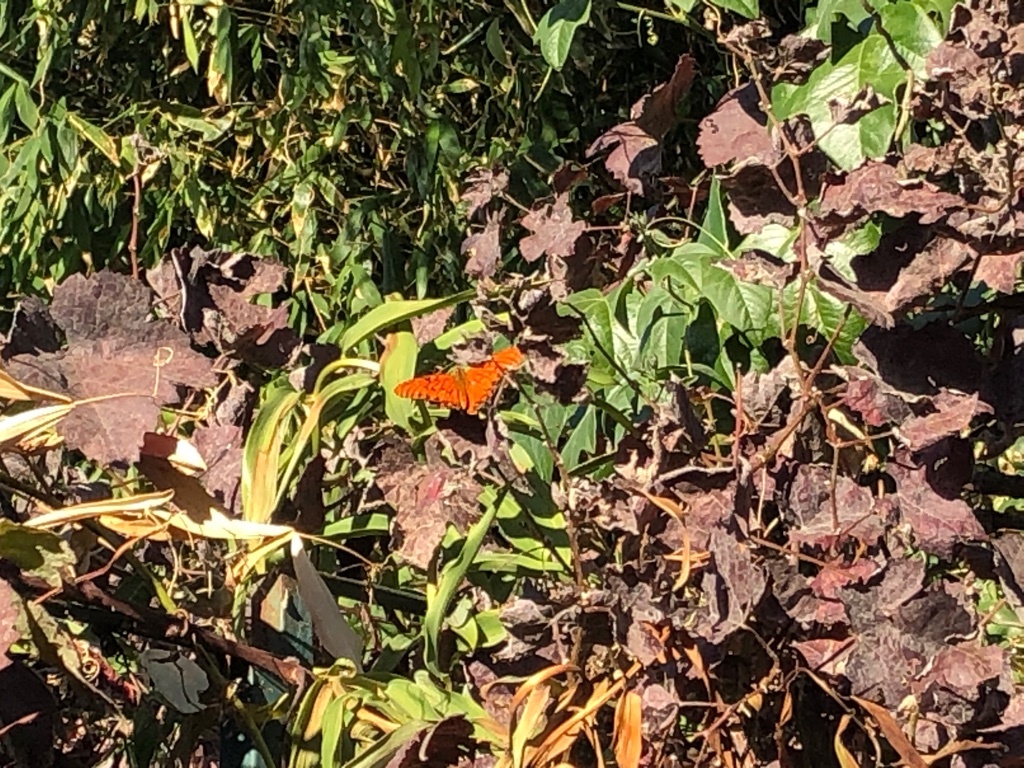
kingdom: Animalia
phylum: Arthropoda
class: Insecta
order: Lepidoptera
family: Nymphalidae
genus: Dione
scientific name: Dione vanillae
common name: Gulf fritillary
